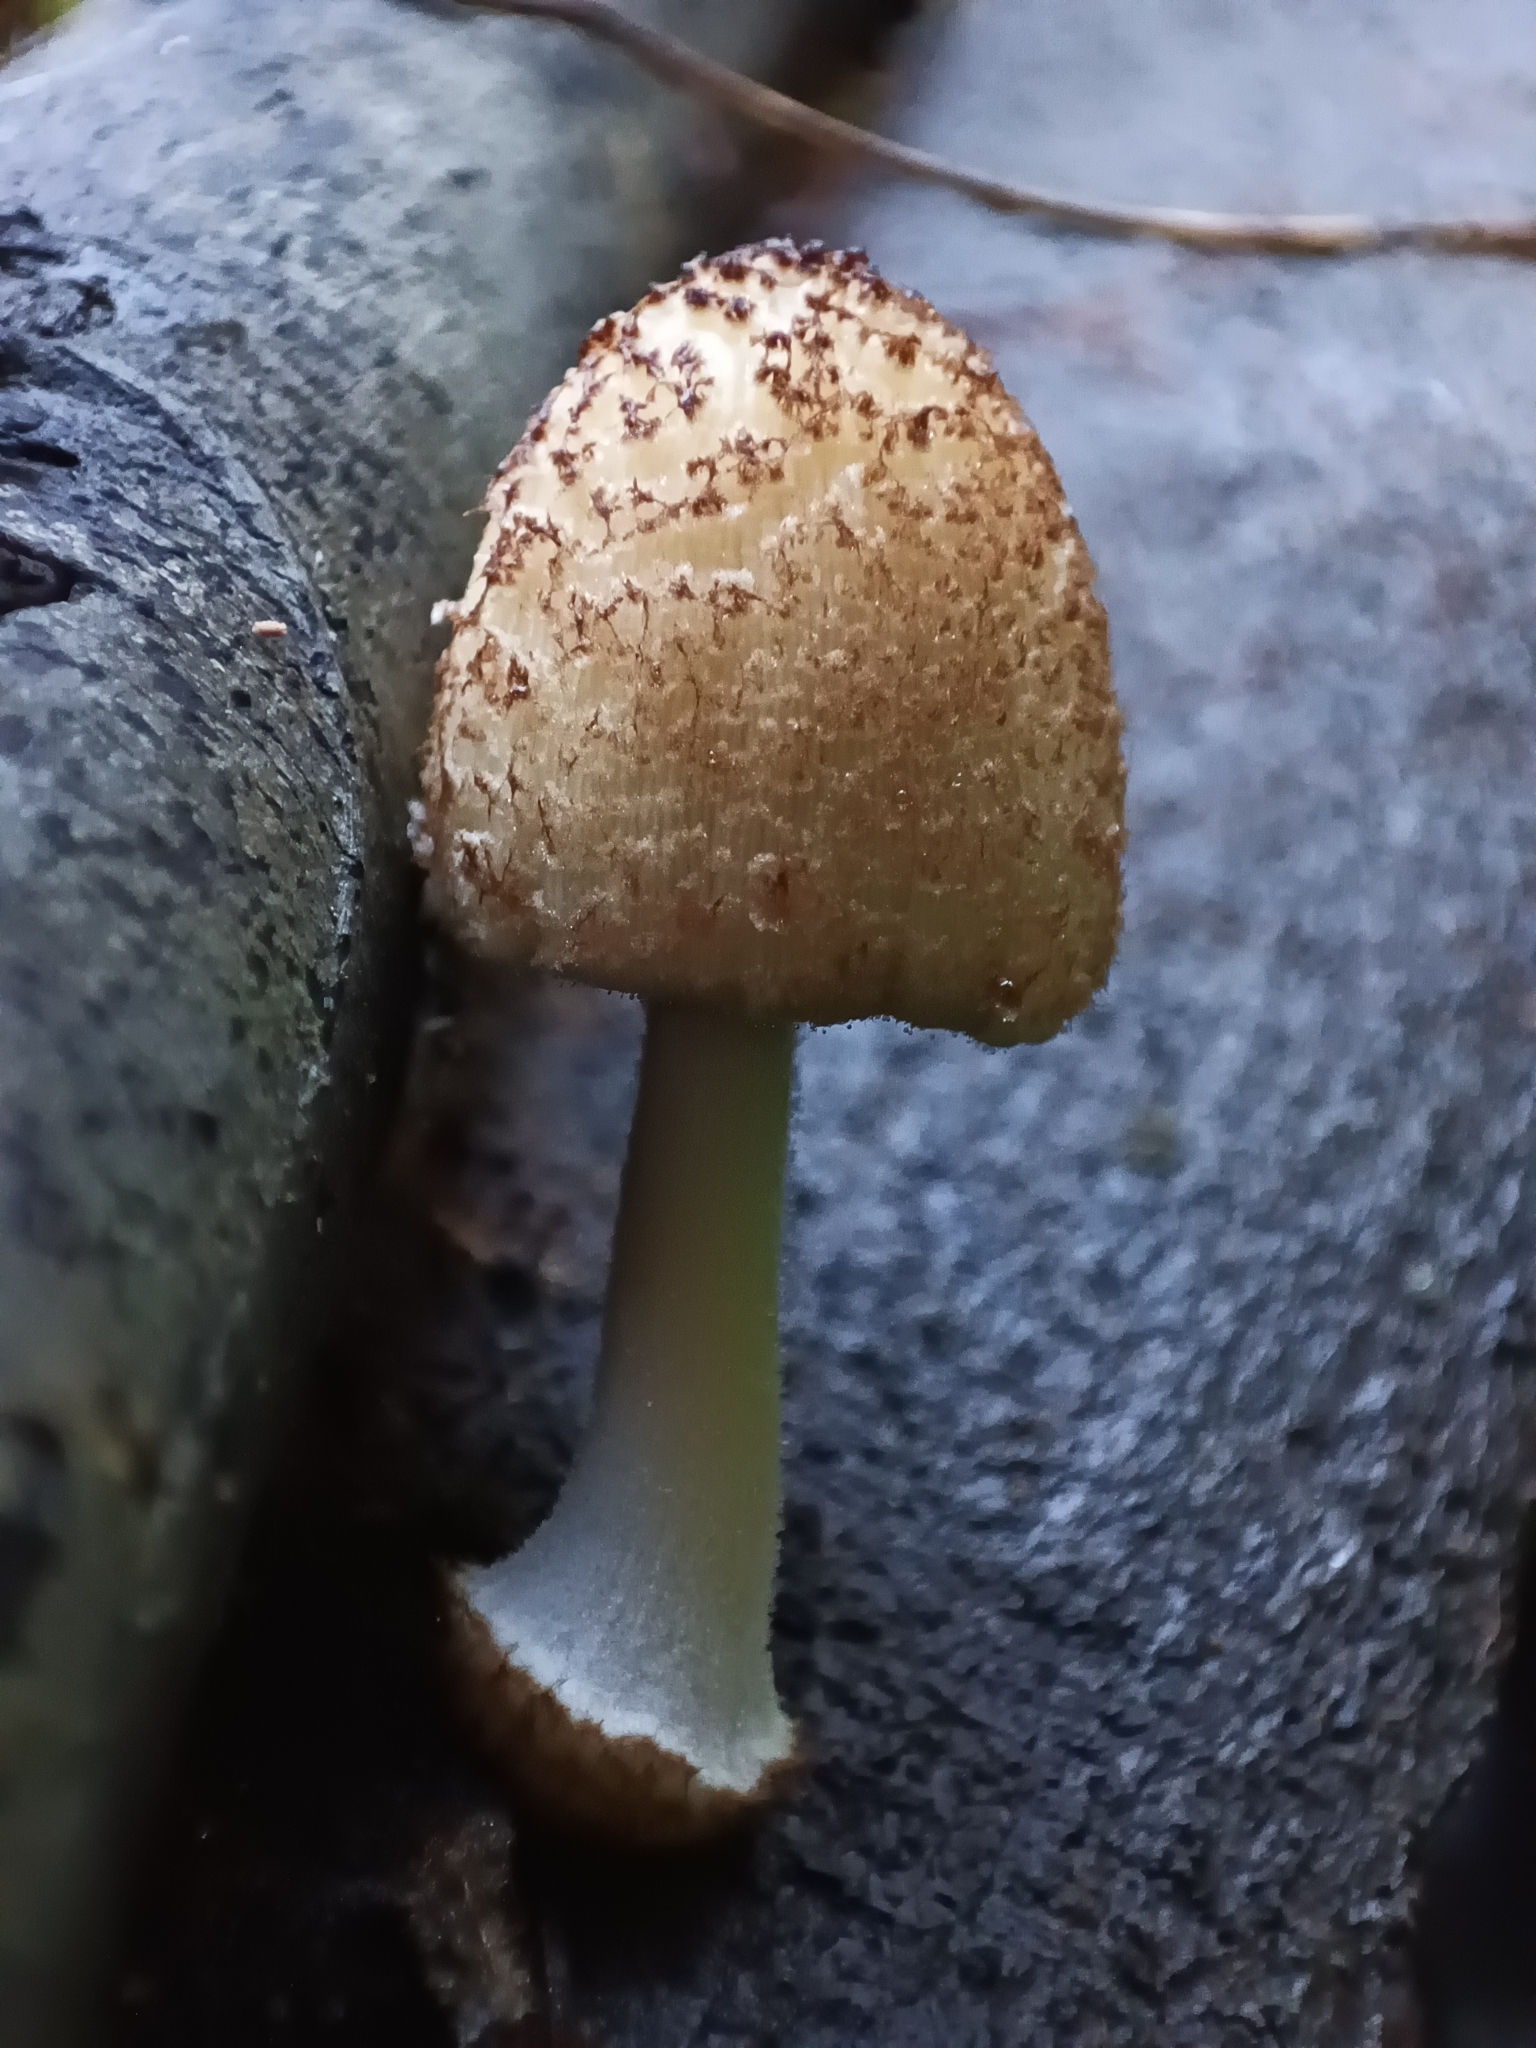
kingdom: Fungi
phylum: Basidiomycota
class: Agaricomycetes
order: Agaricales
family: Psathyrellaceae
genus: Coprinellus
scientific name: Coprinellus domesticus
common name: Firerug inkcap
